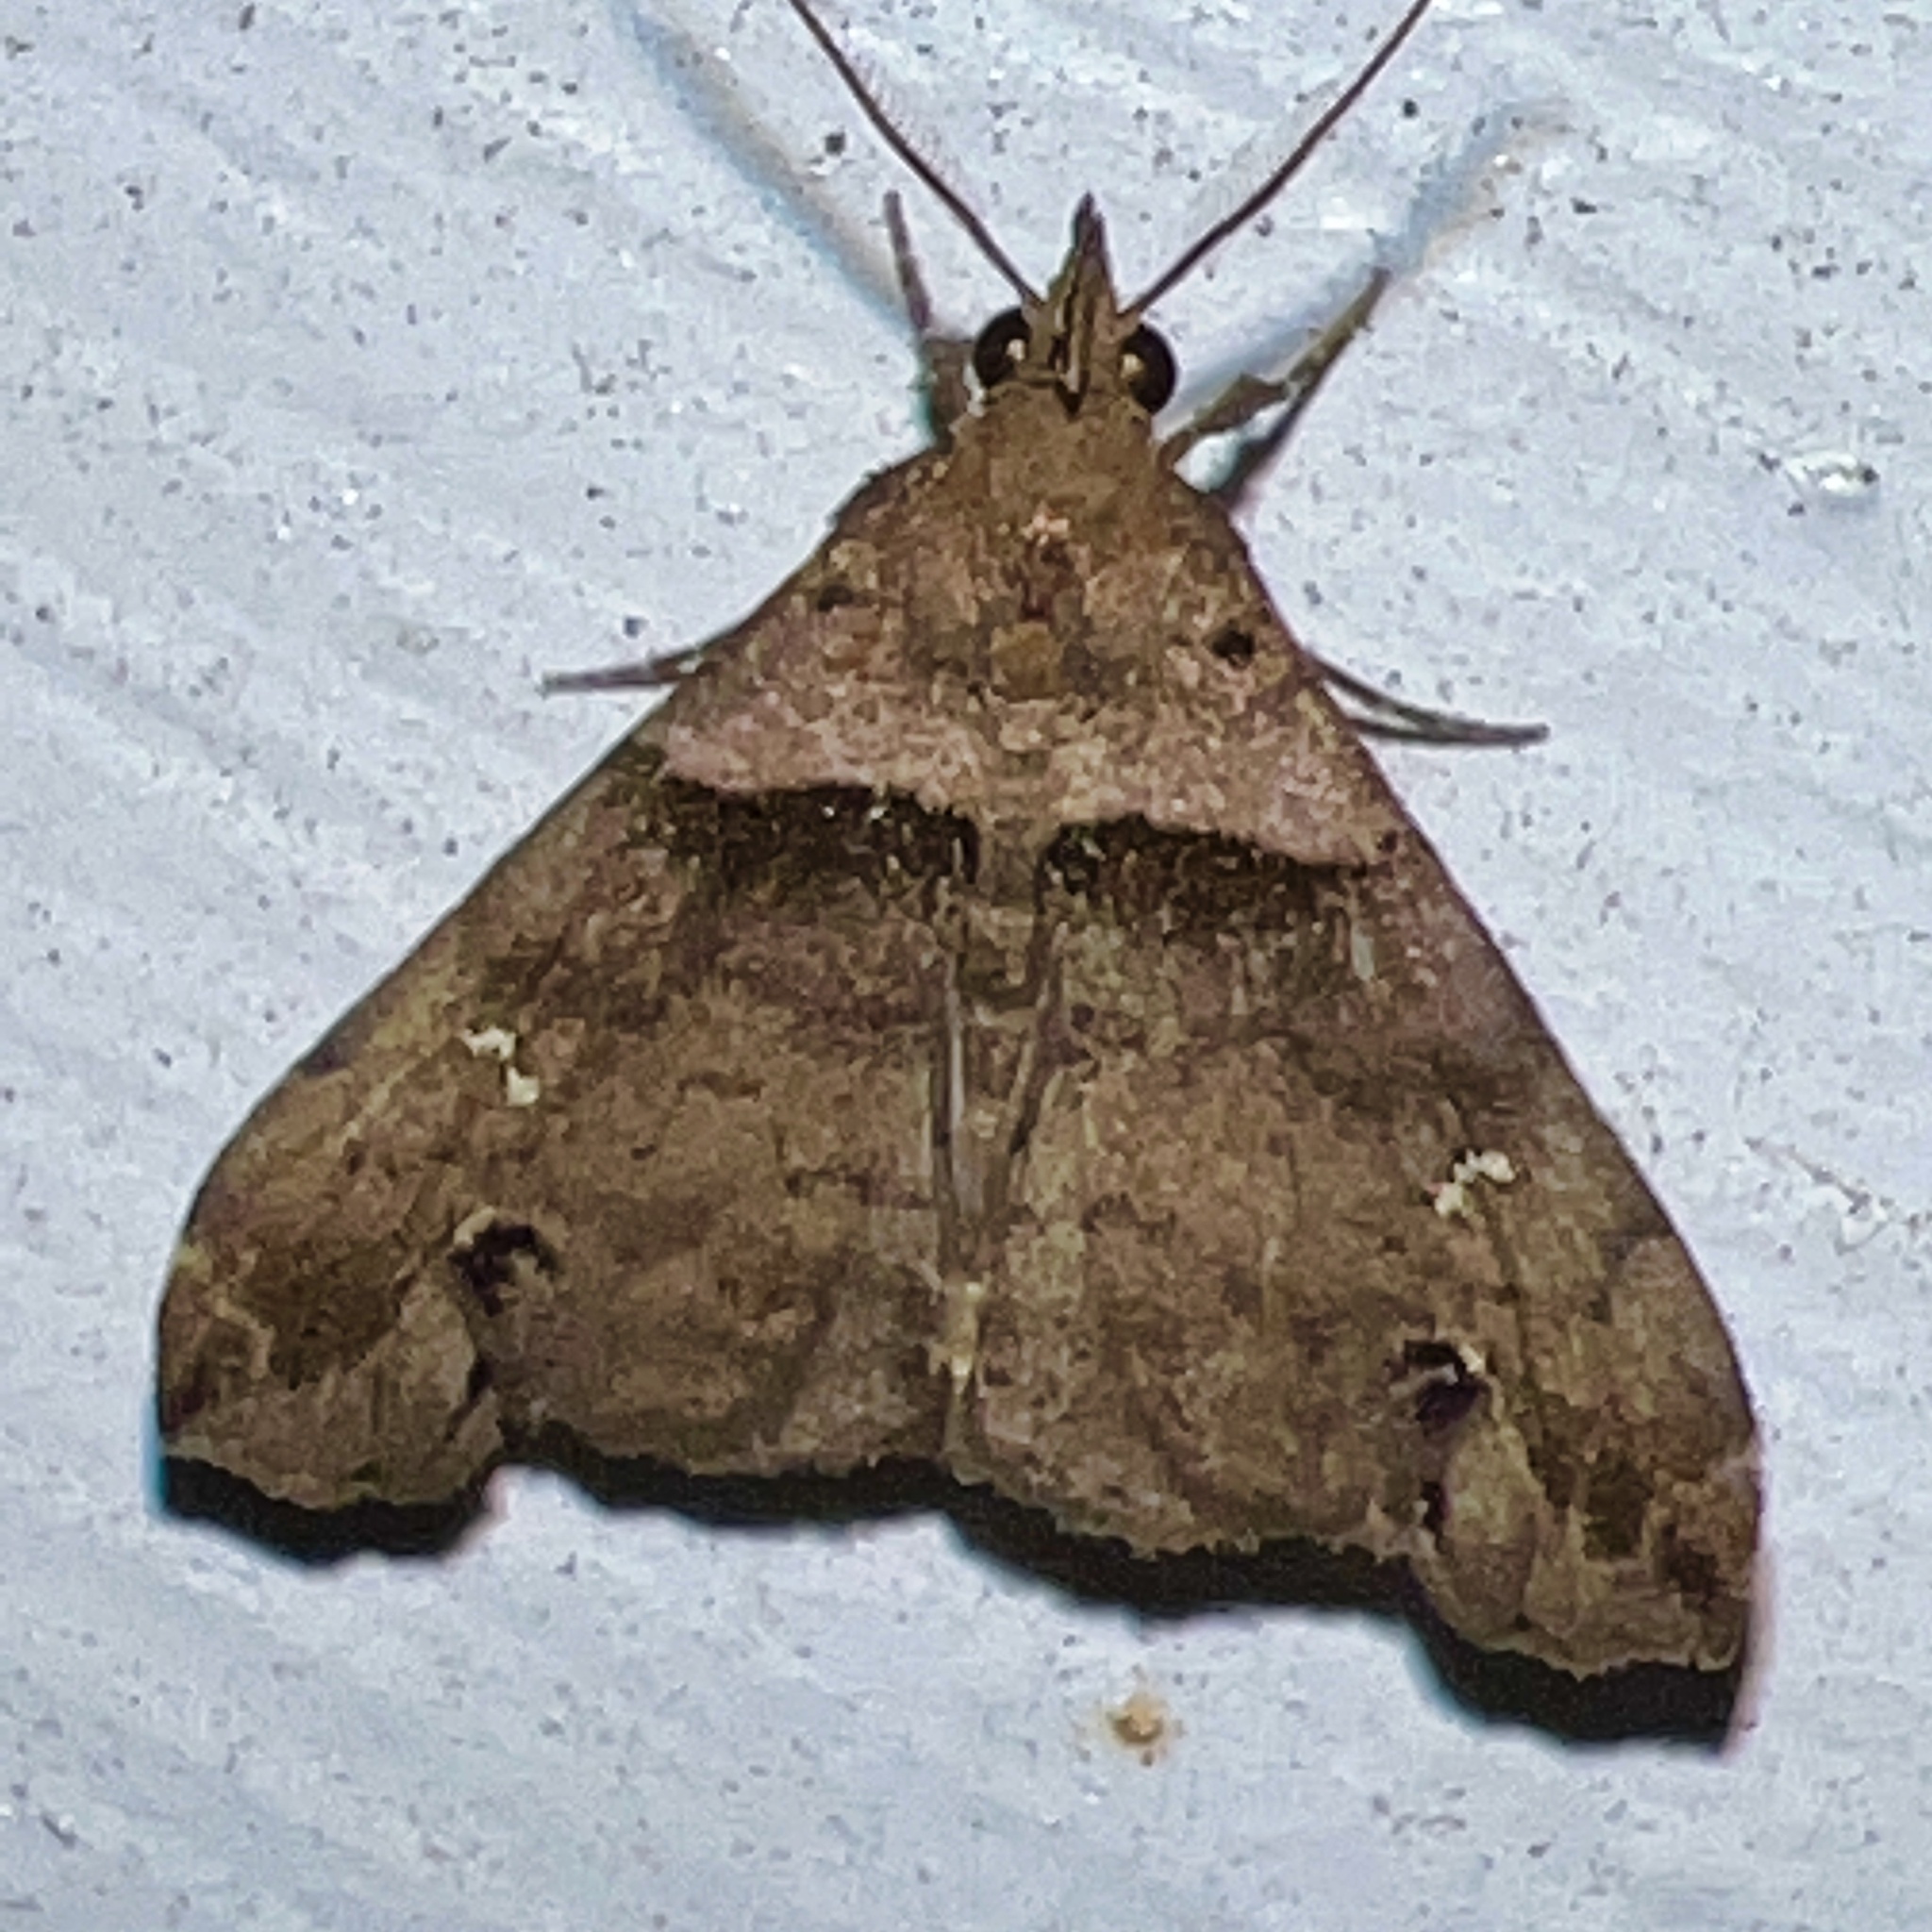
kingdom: Animalia
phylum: Arthropoda
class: Insecta
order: Lepidoptera
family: Erebidae
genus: Lascoria
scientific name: Lascoria ambigualis
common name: Ambiguous moth
